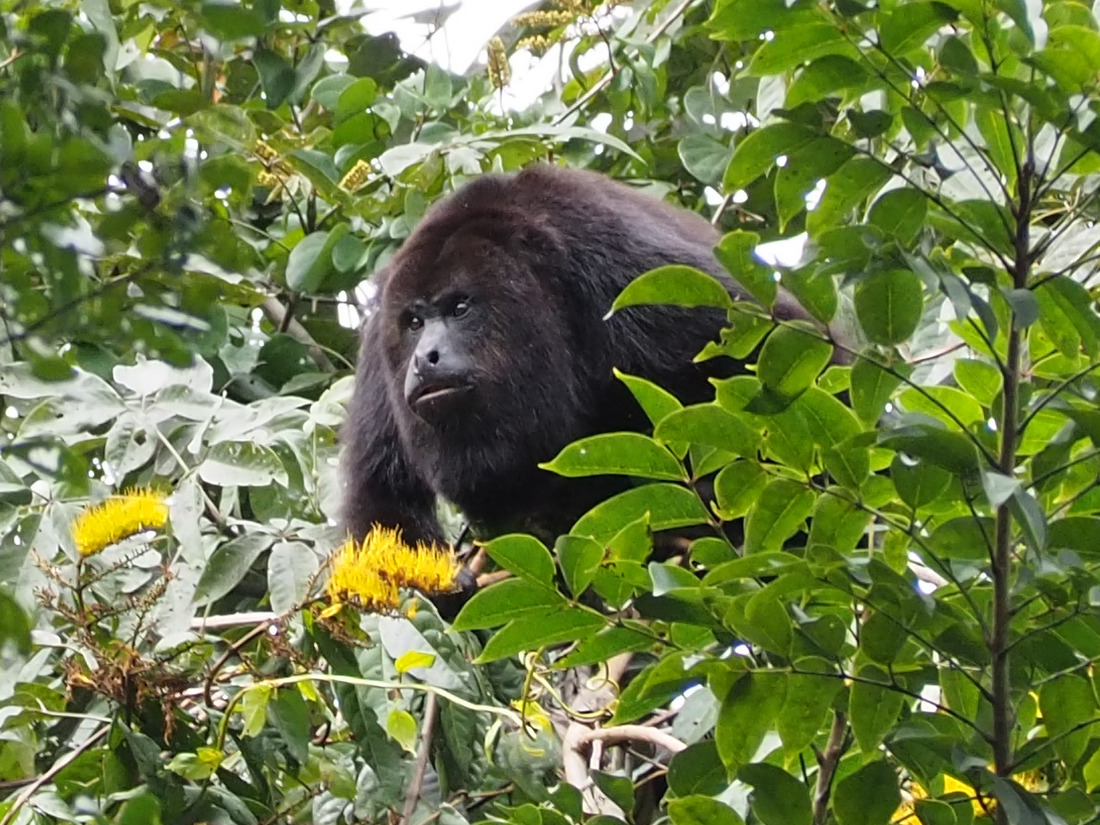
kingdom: Animalia
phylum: Chordata
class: Mammalia
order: Primates
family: Atelidae
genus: Alouatta
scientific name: Alouatta pigra
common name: Guatemalan black howler
